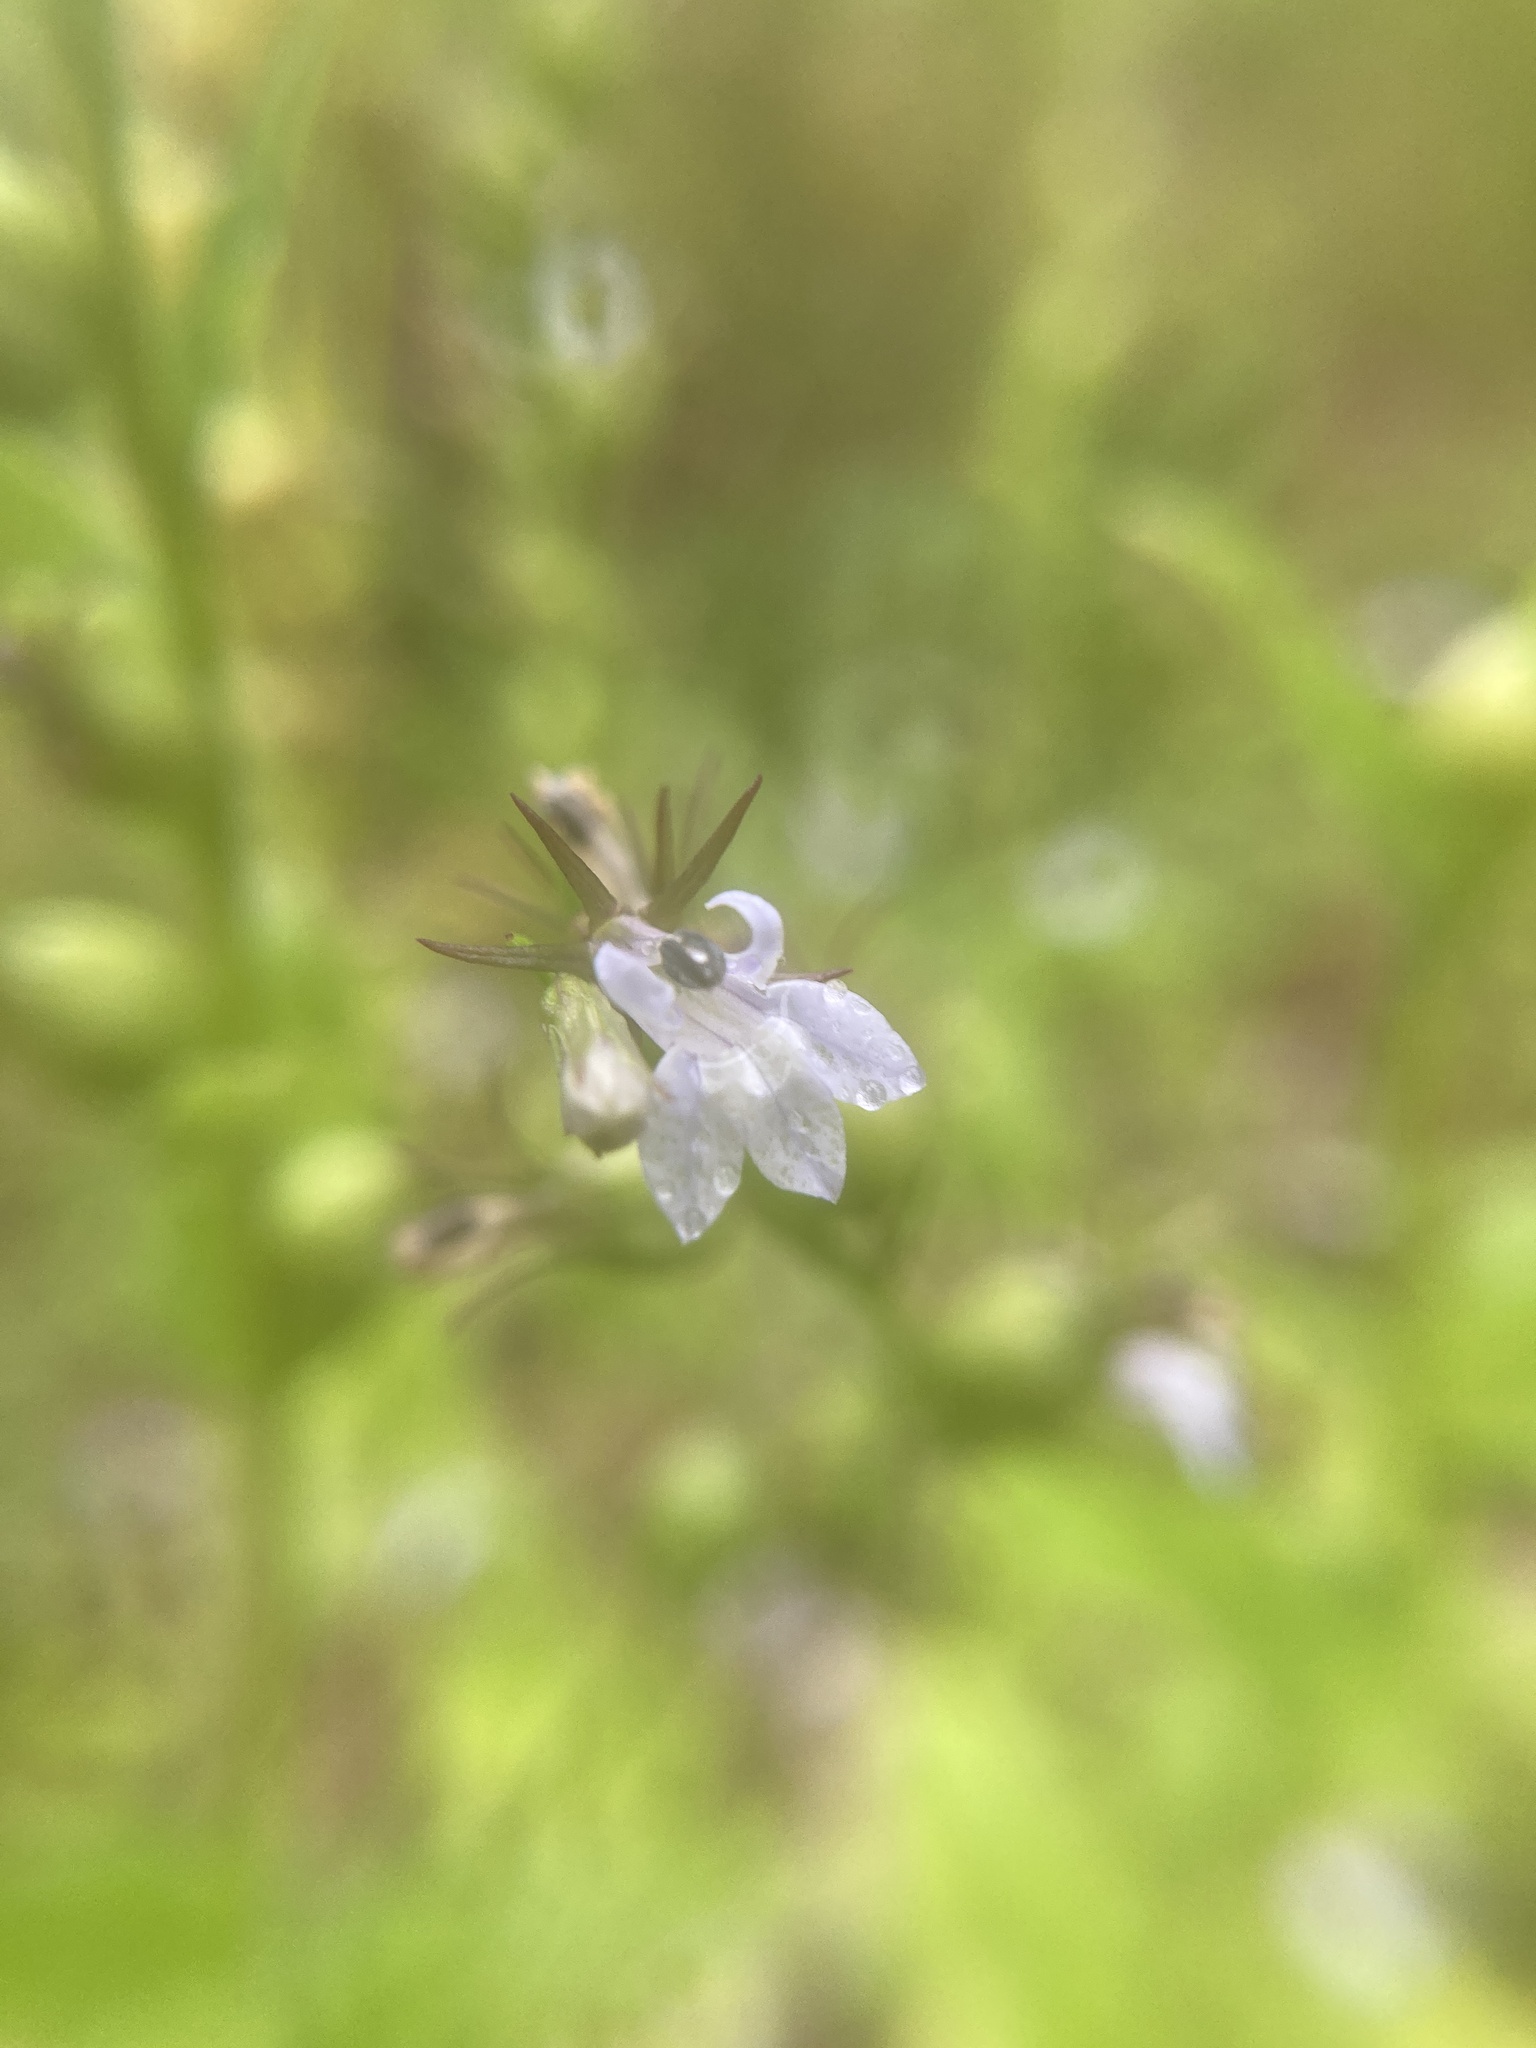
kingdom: Plantae
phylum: Tracheophyta
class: Magnoliopsida
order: Asterales
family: Campanulaceae
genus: Lobelia
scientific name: Lobelia inflata
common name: Indian tobacco
